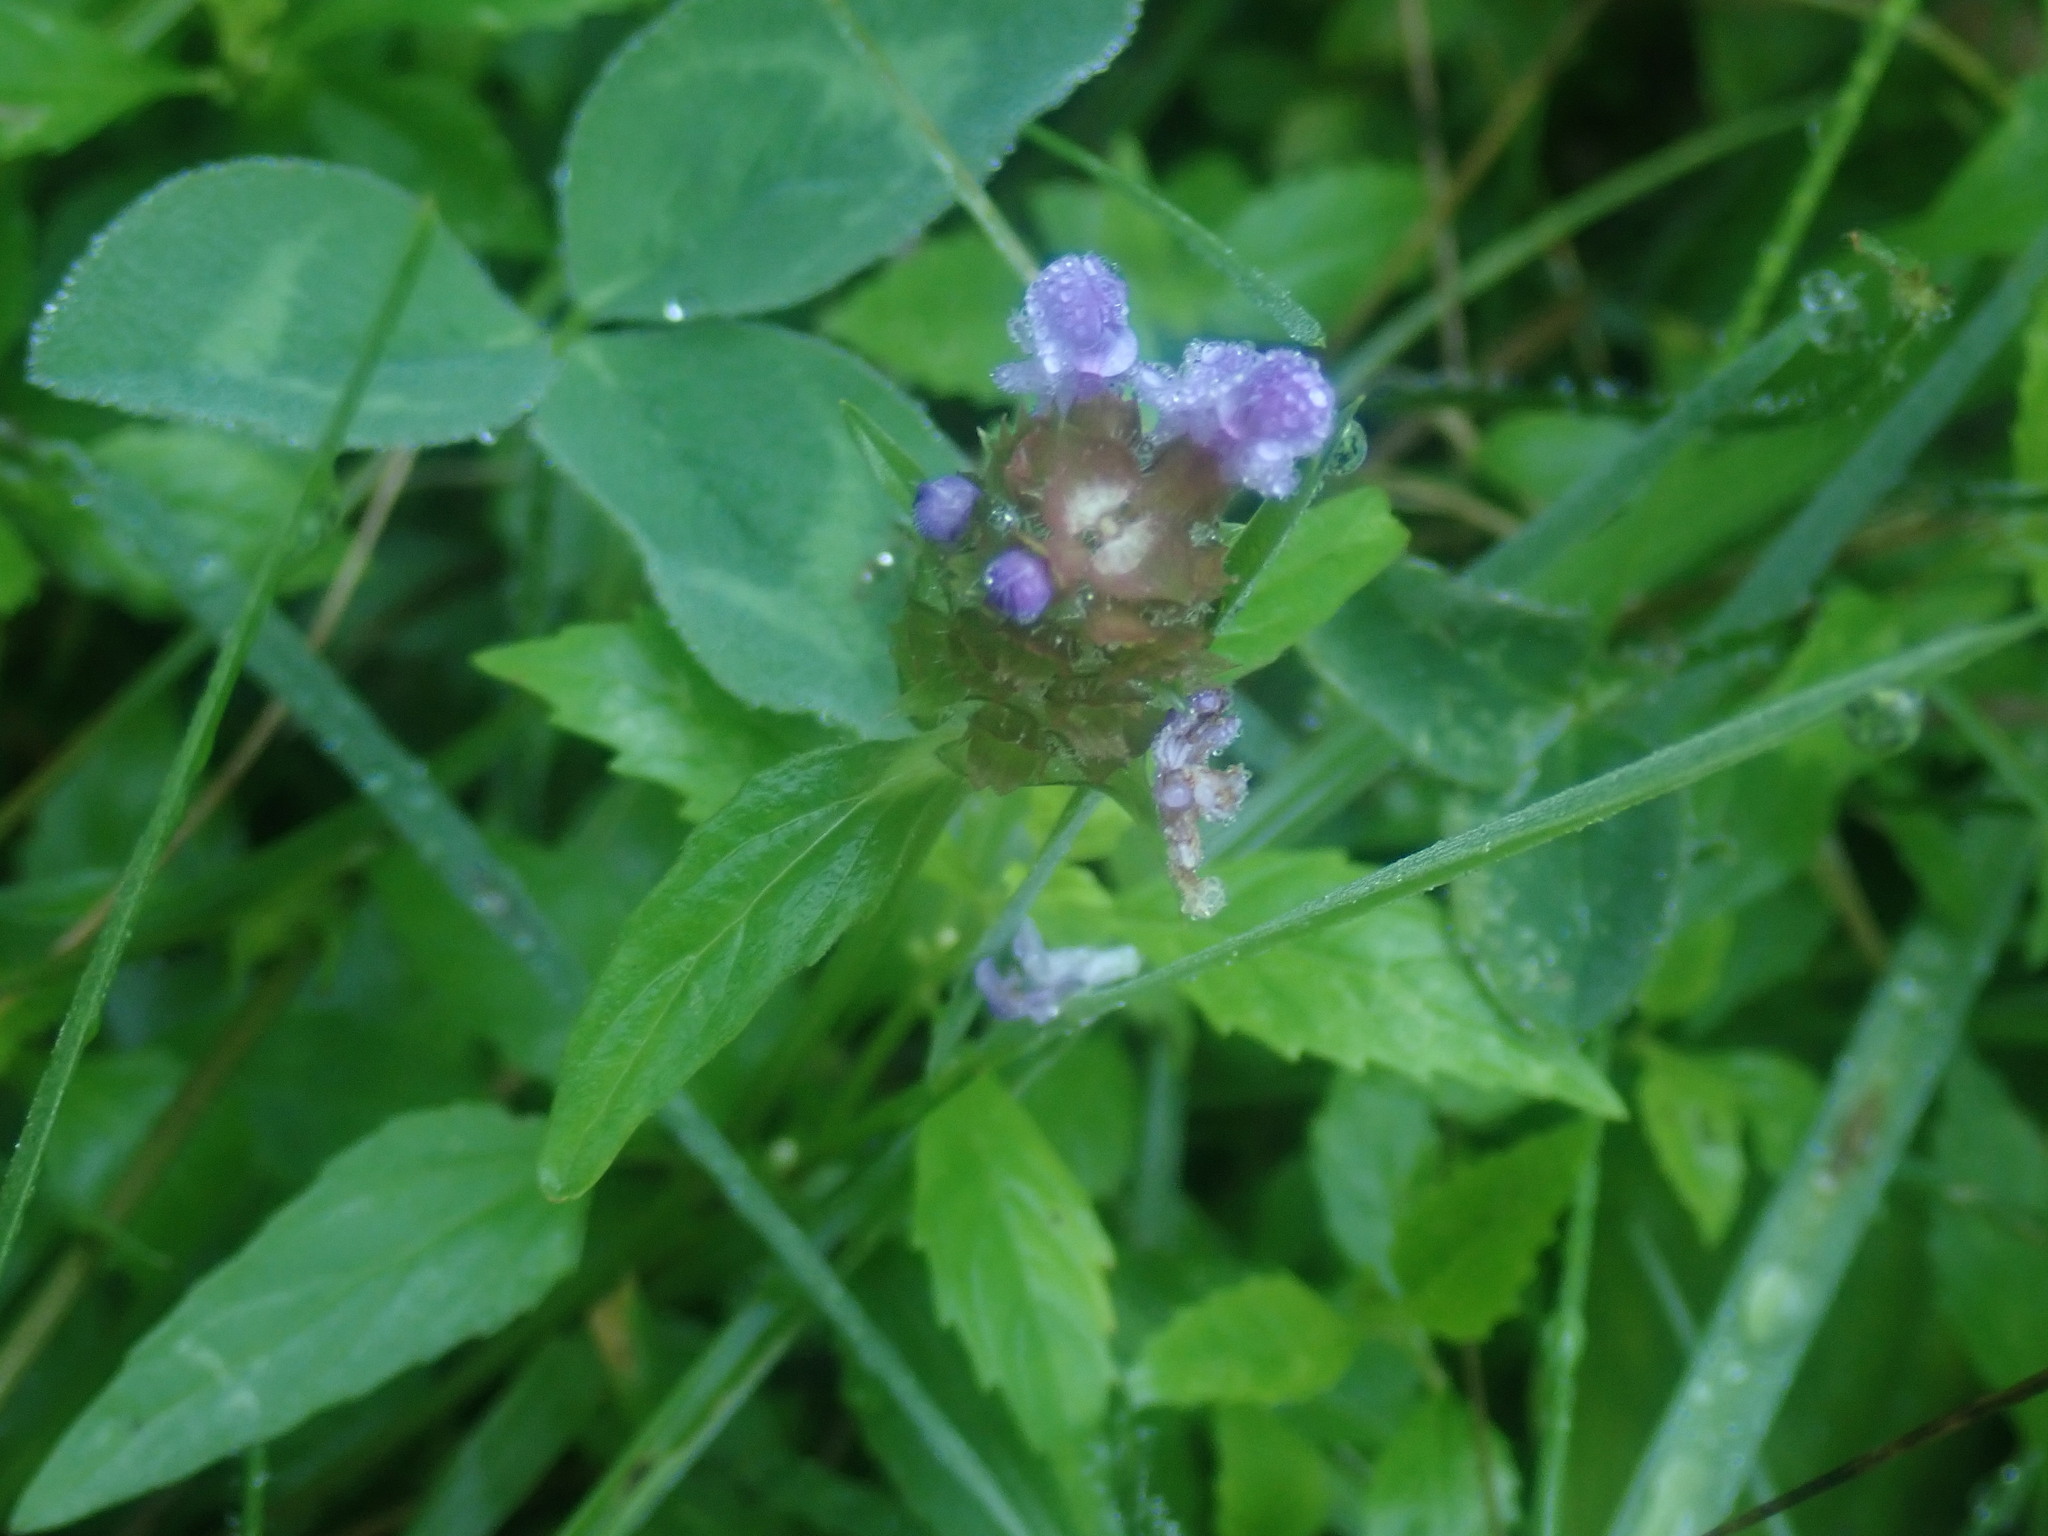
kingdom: Plantae
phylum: Tracheophyta
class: Magnoliopsida
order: Lamiales
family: Lamiaceae
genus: Prunella
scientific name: Prunella vulgaris
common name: Heal-all
